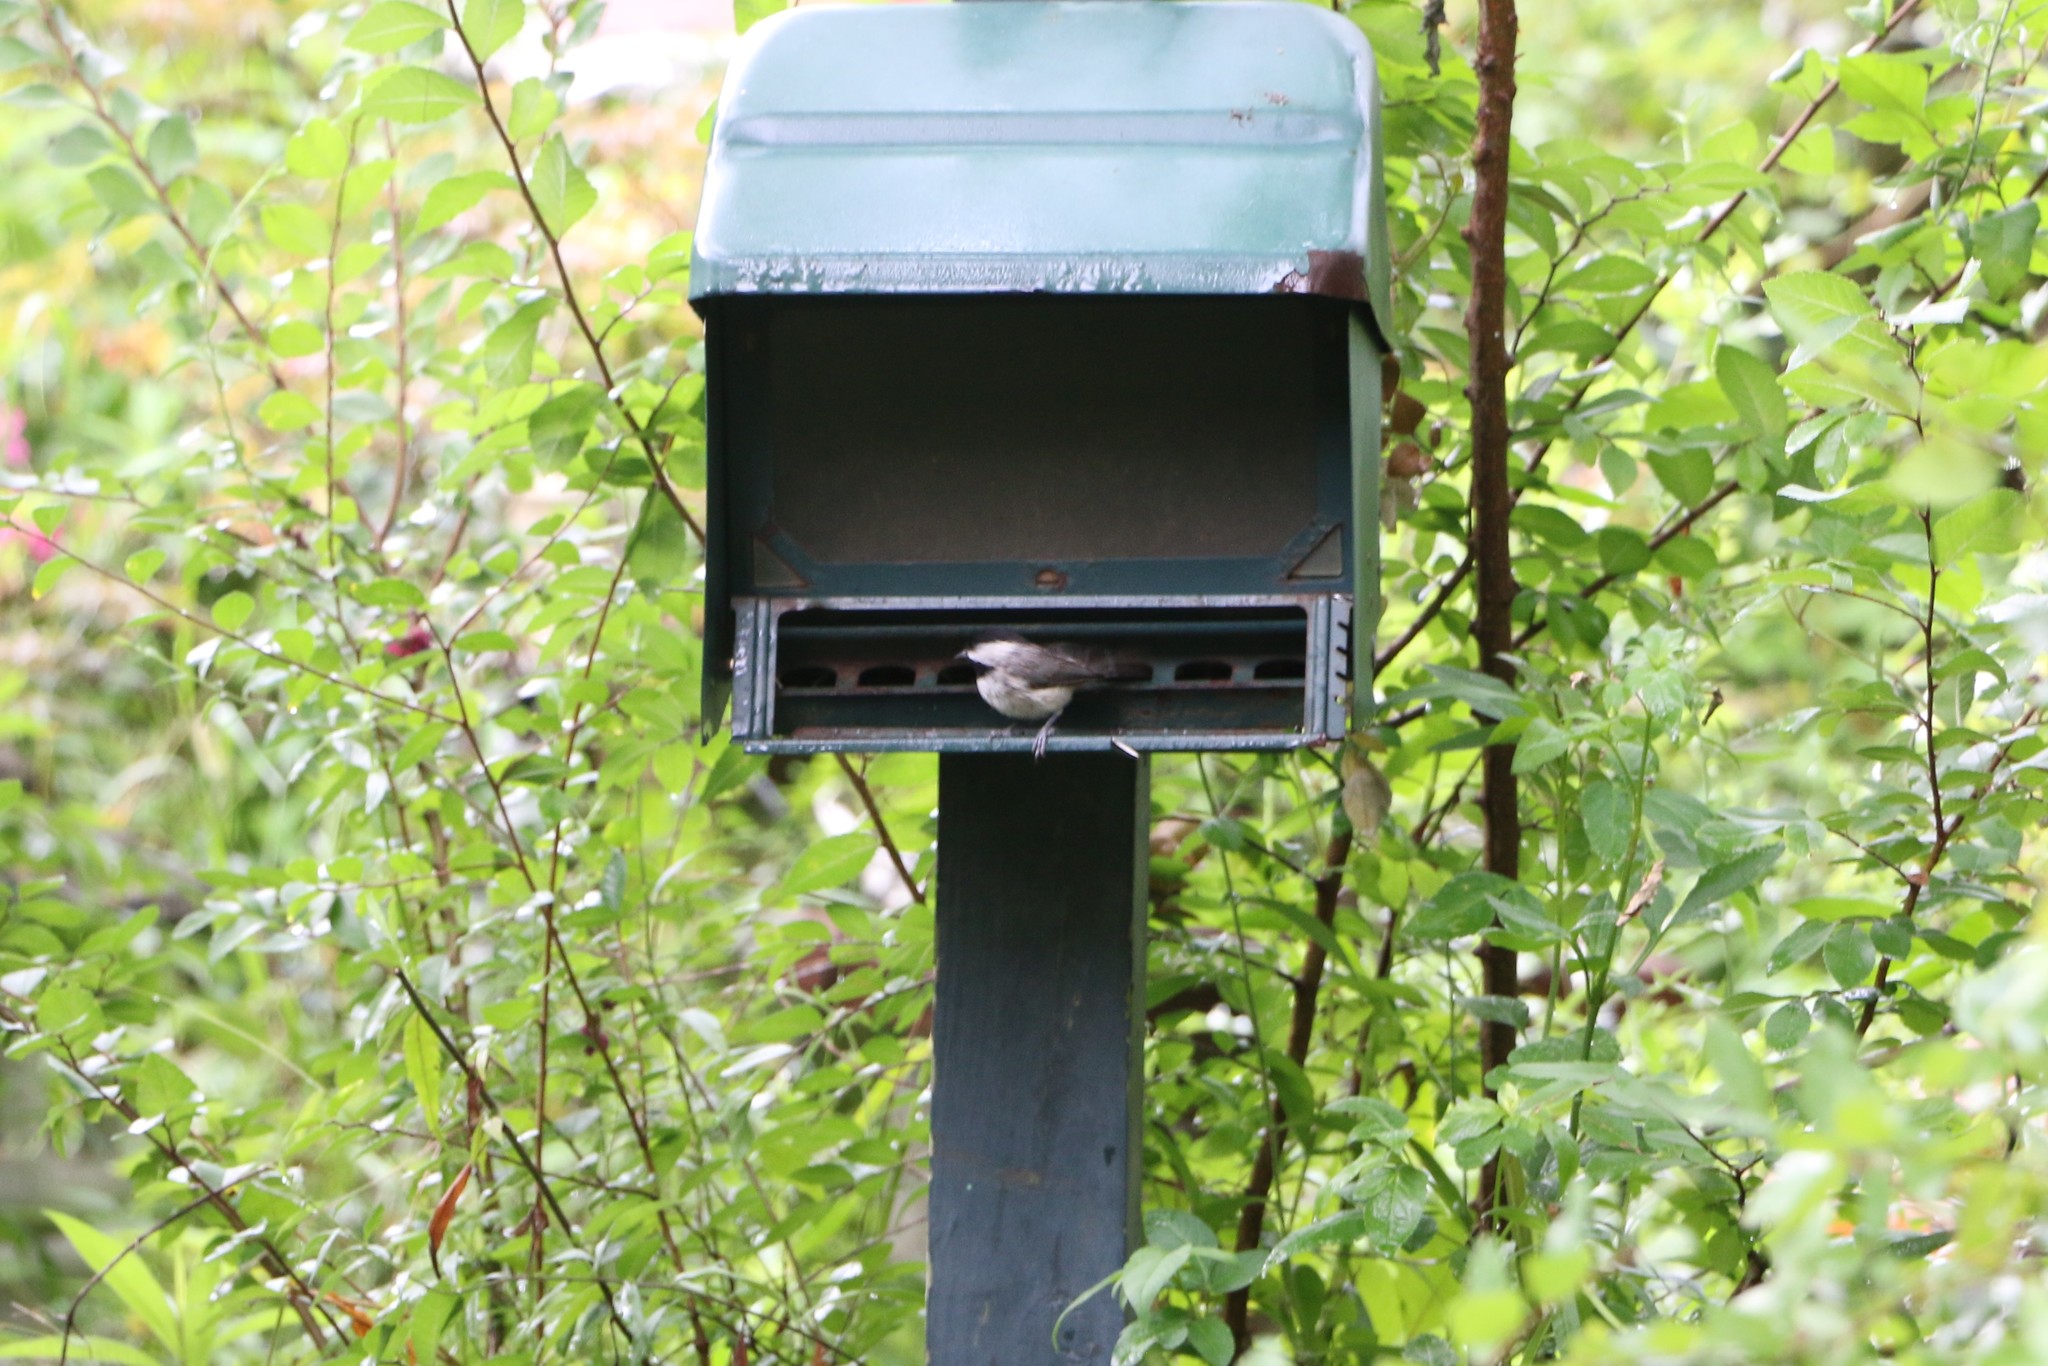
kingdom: Animalia
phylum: Chordata
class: Aves
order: Passeriformes
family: Paridae
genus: Poecile
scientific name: Poecile carolinensis
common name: Carolina chickadee
